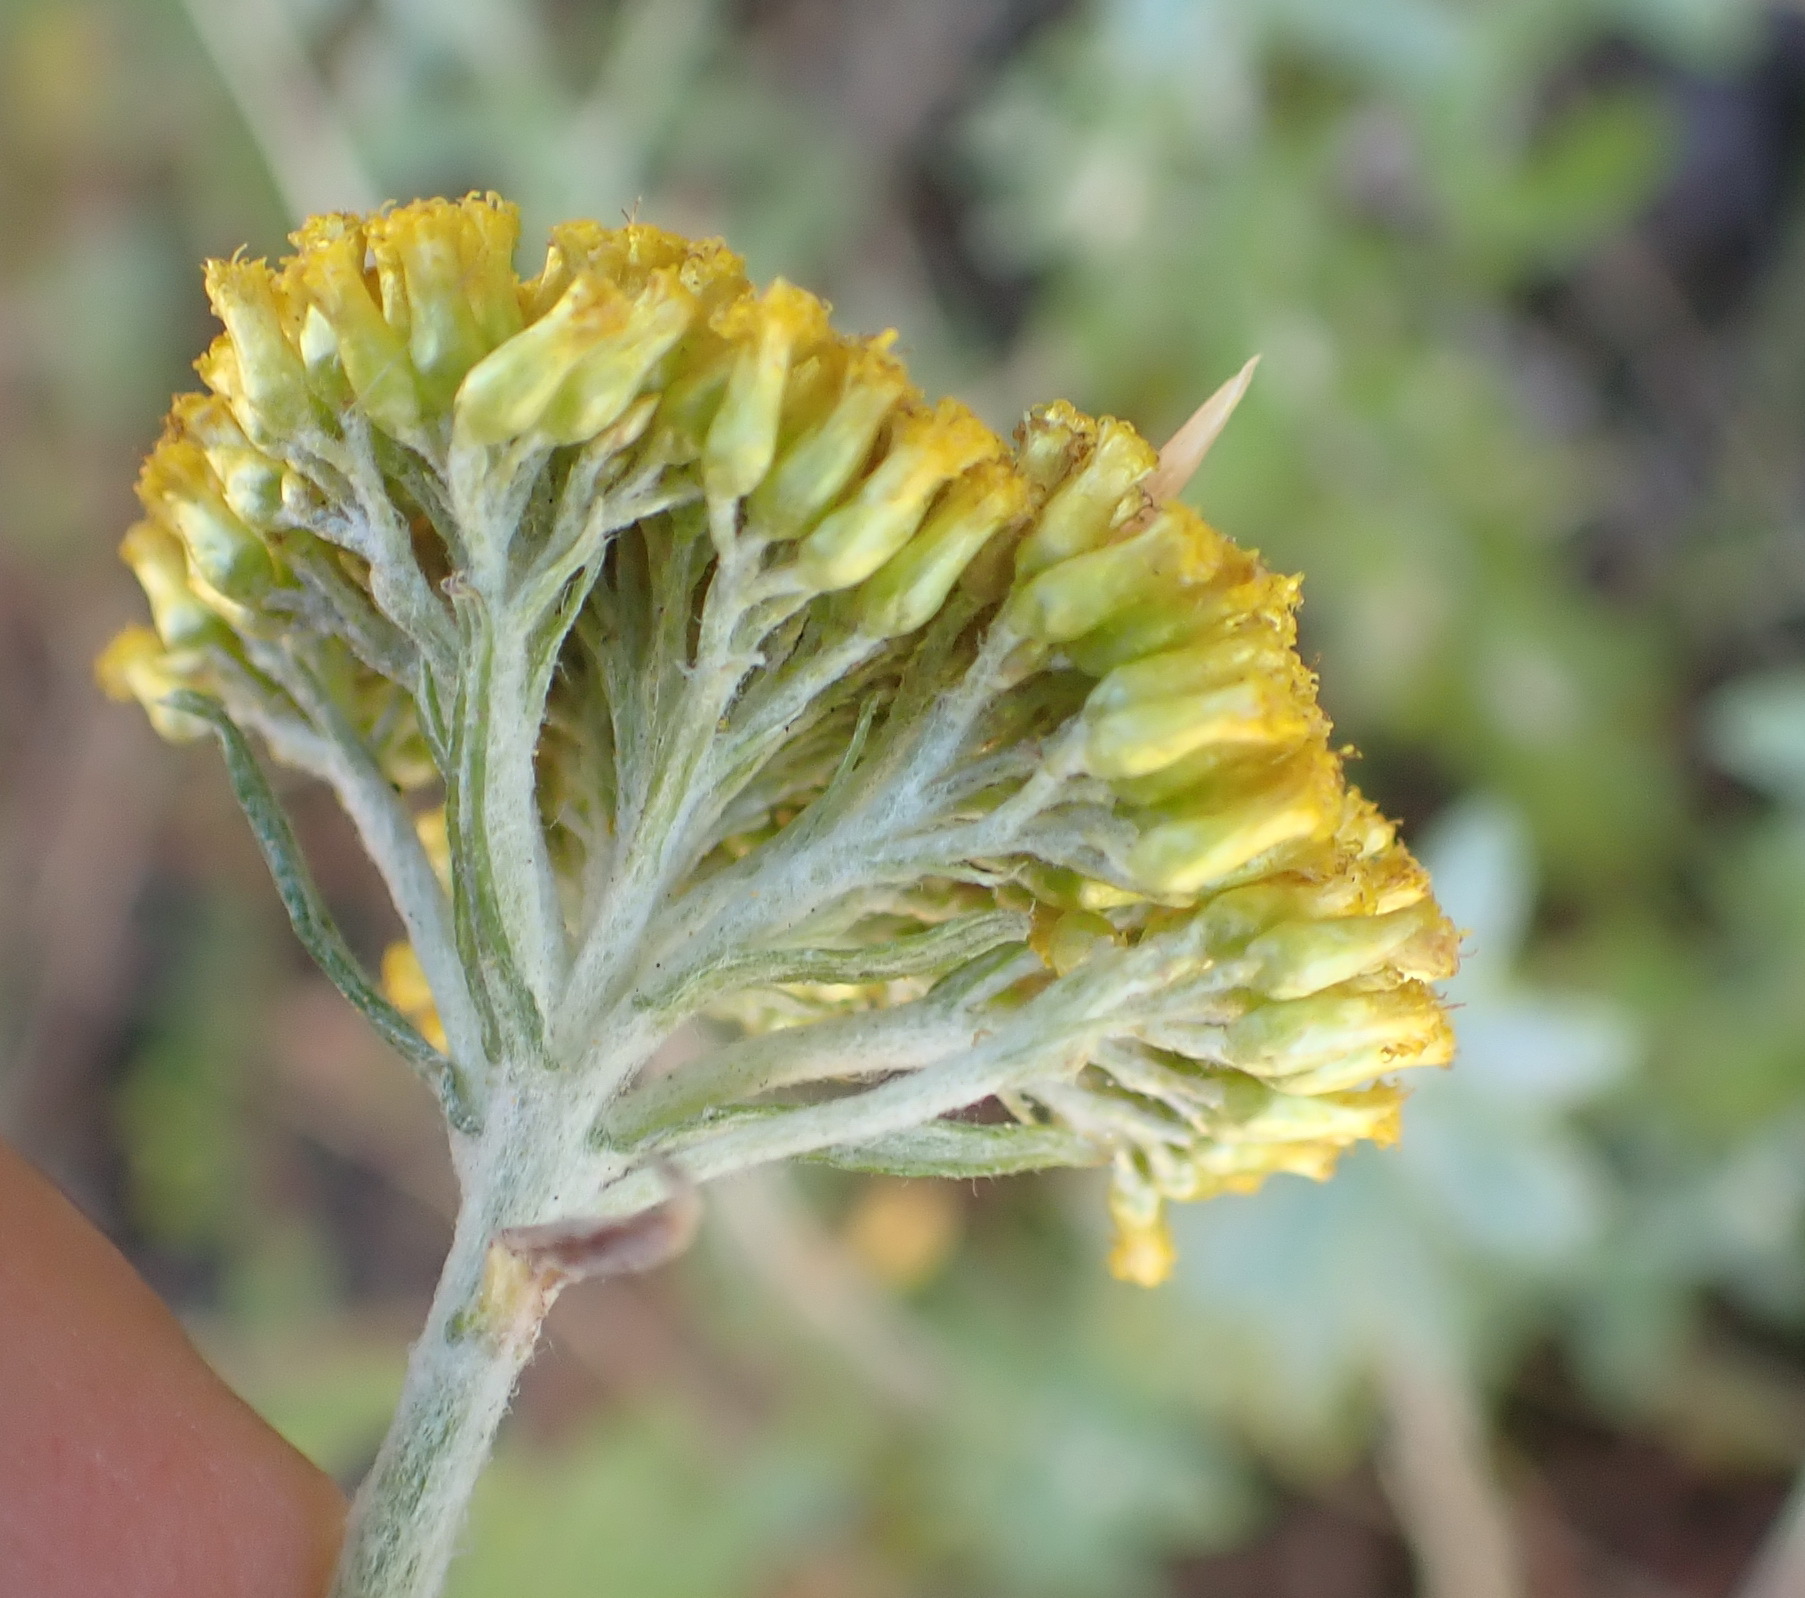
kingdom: Plantae
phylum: Tracheophyta
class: Magnoliopsida
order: Asterales
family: Asteraceae
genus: Helichrysum
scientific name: Helichrysum cymosum
